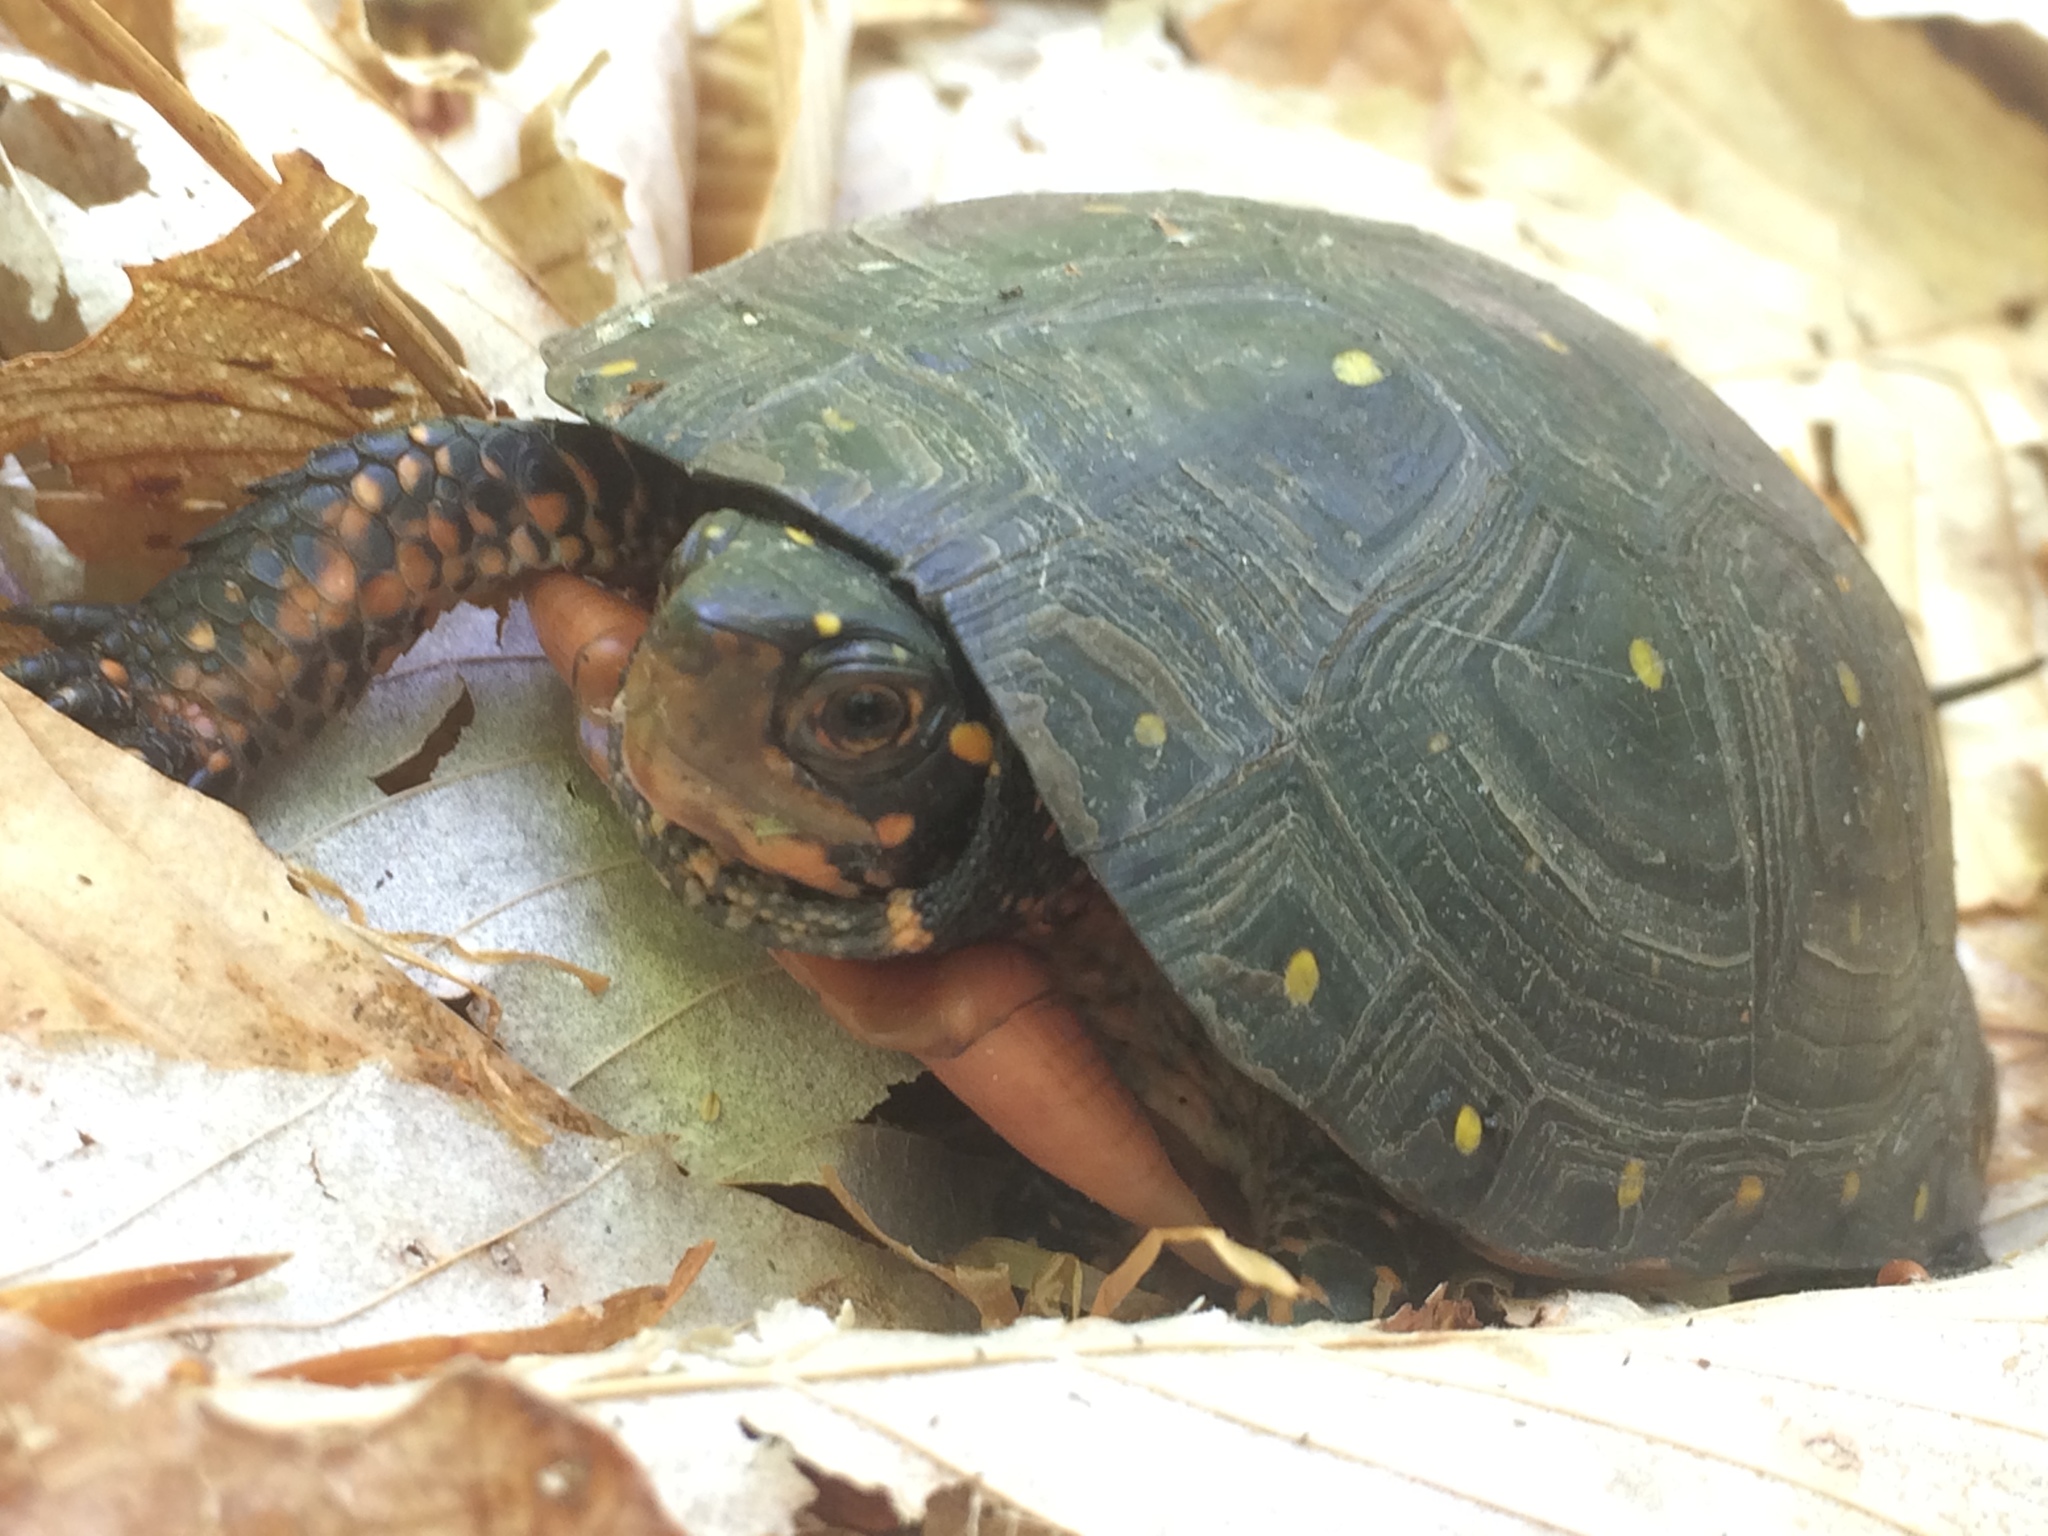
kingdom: Animalia
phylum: Chordata
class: Testudines
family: Emydidae
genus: Clemmys
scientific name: Clemmys guttata
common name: Spotted turtle
